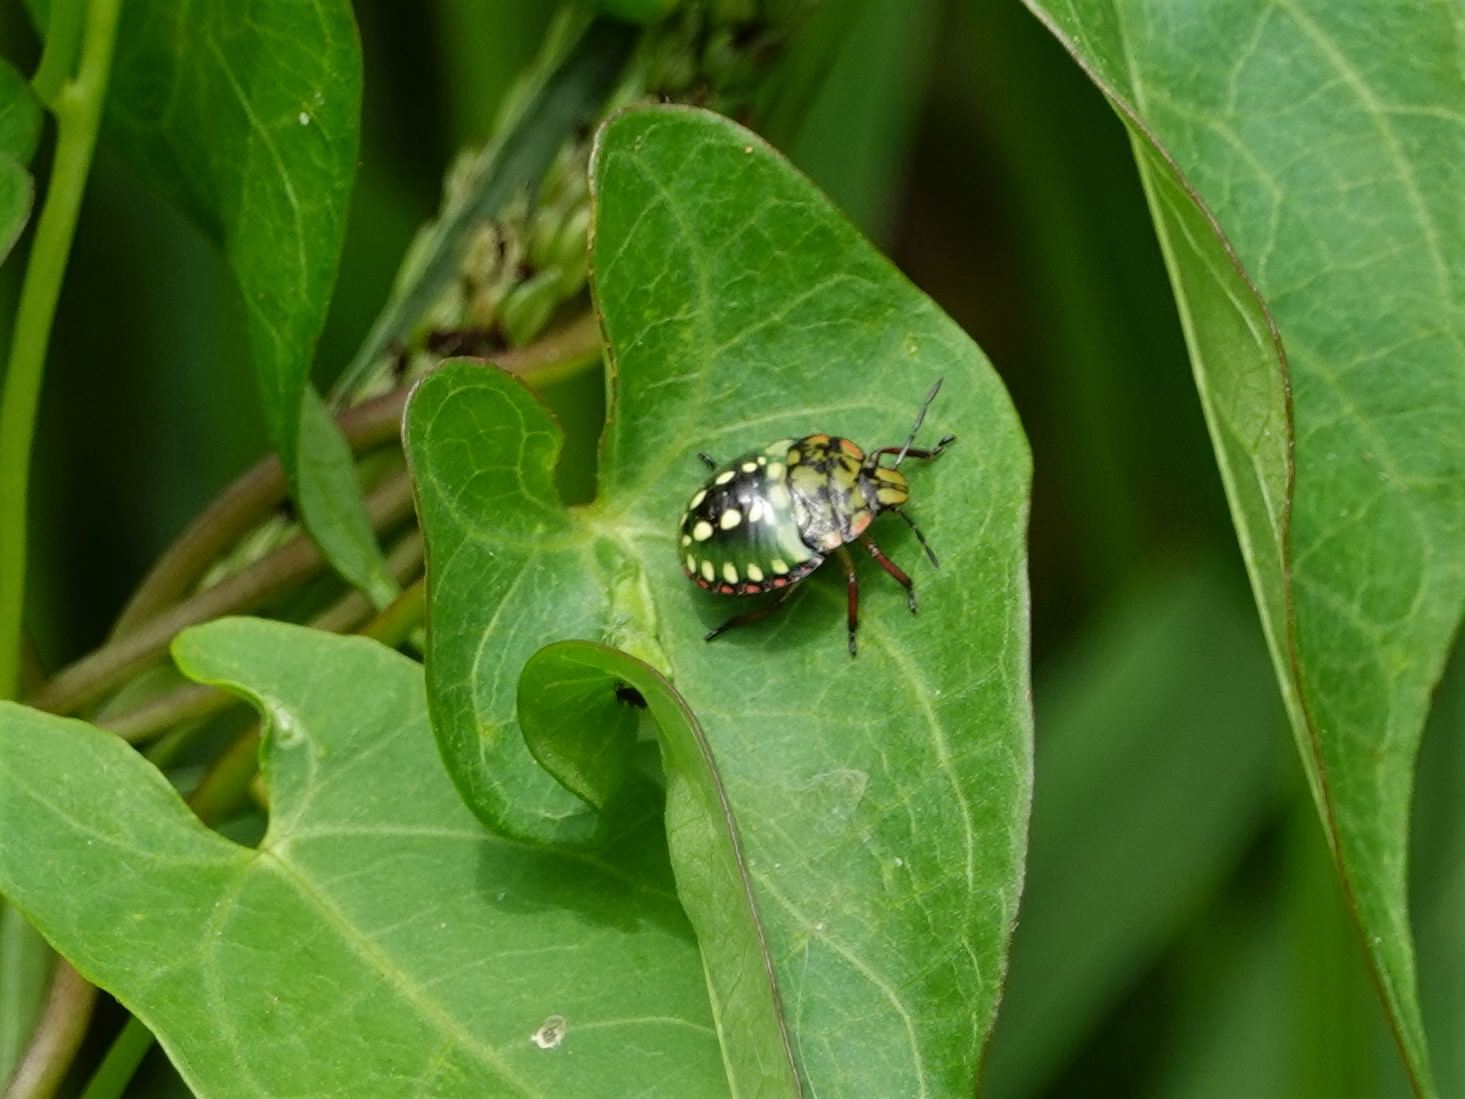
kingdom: Animalia
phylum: Arthropoda
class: Insecta
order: Hemiptera
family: Pentatomidae
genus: Nezara
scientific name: Nezara viridula
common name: Southern green stink bug
